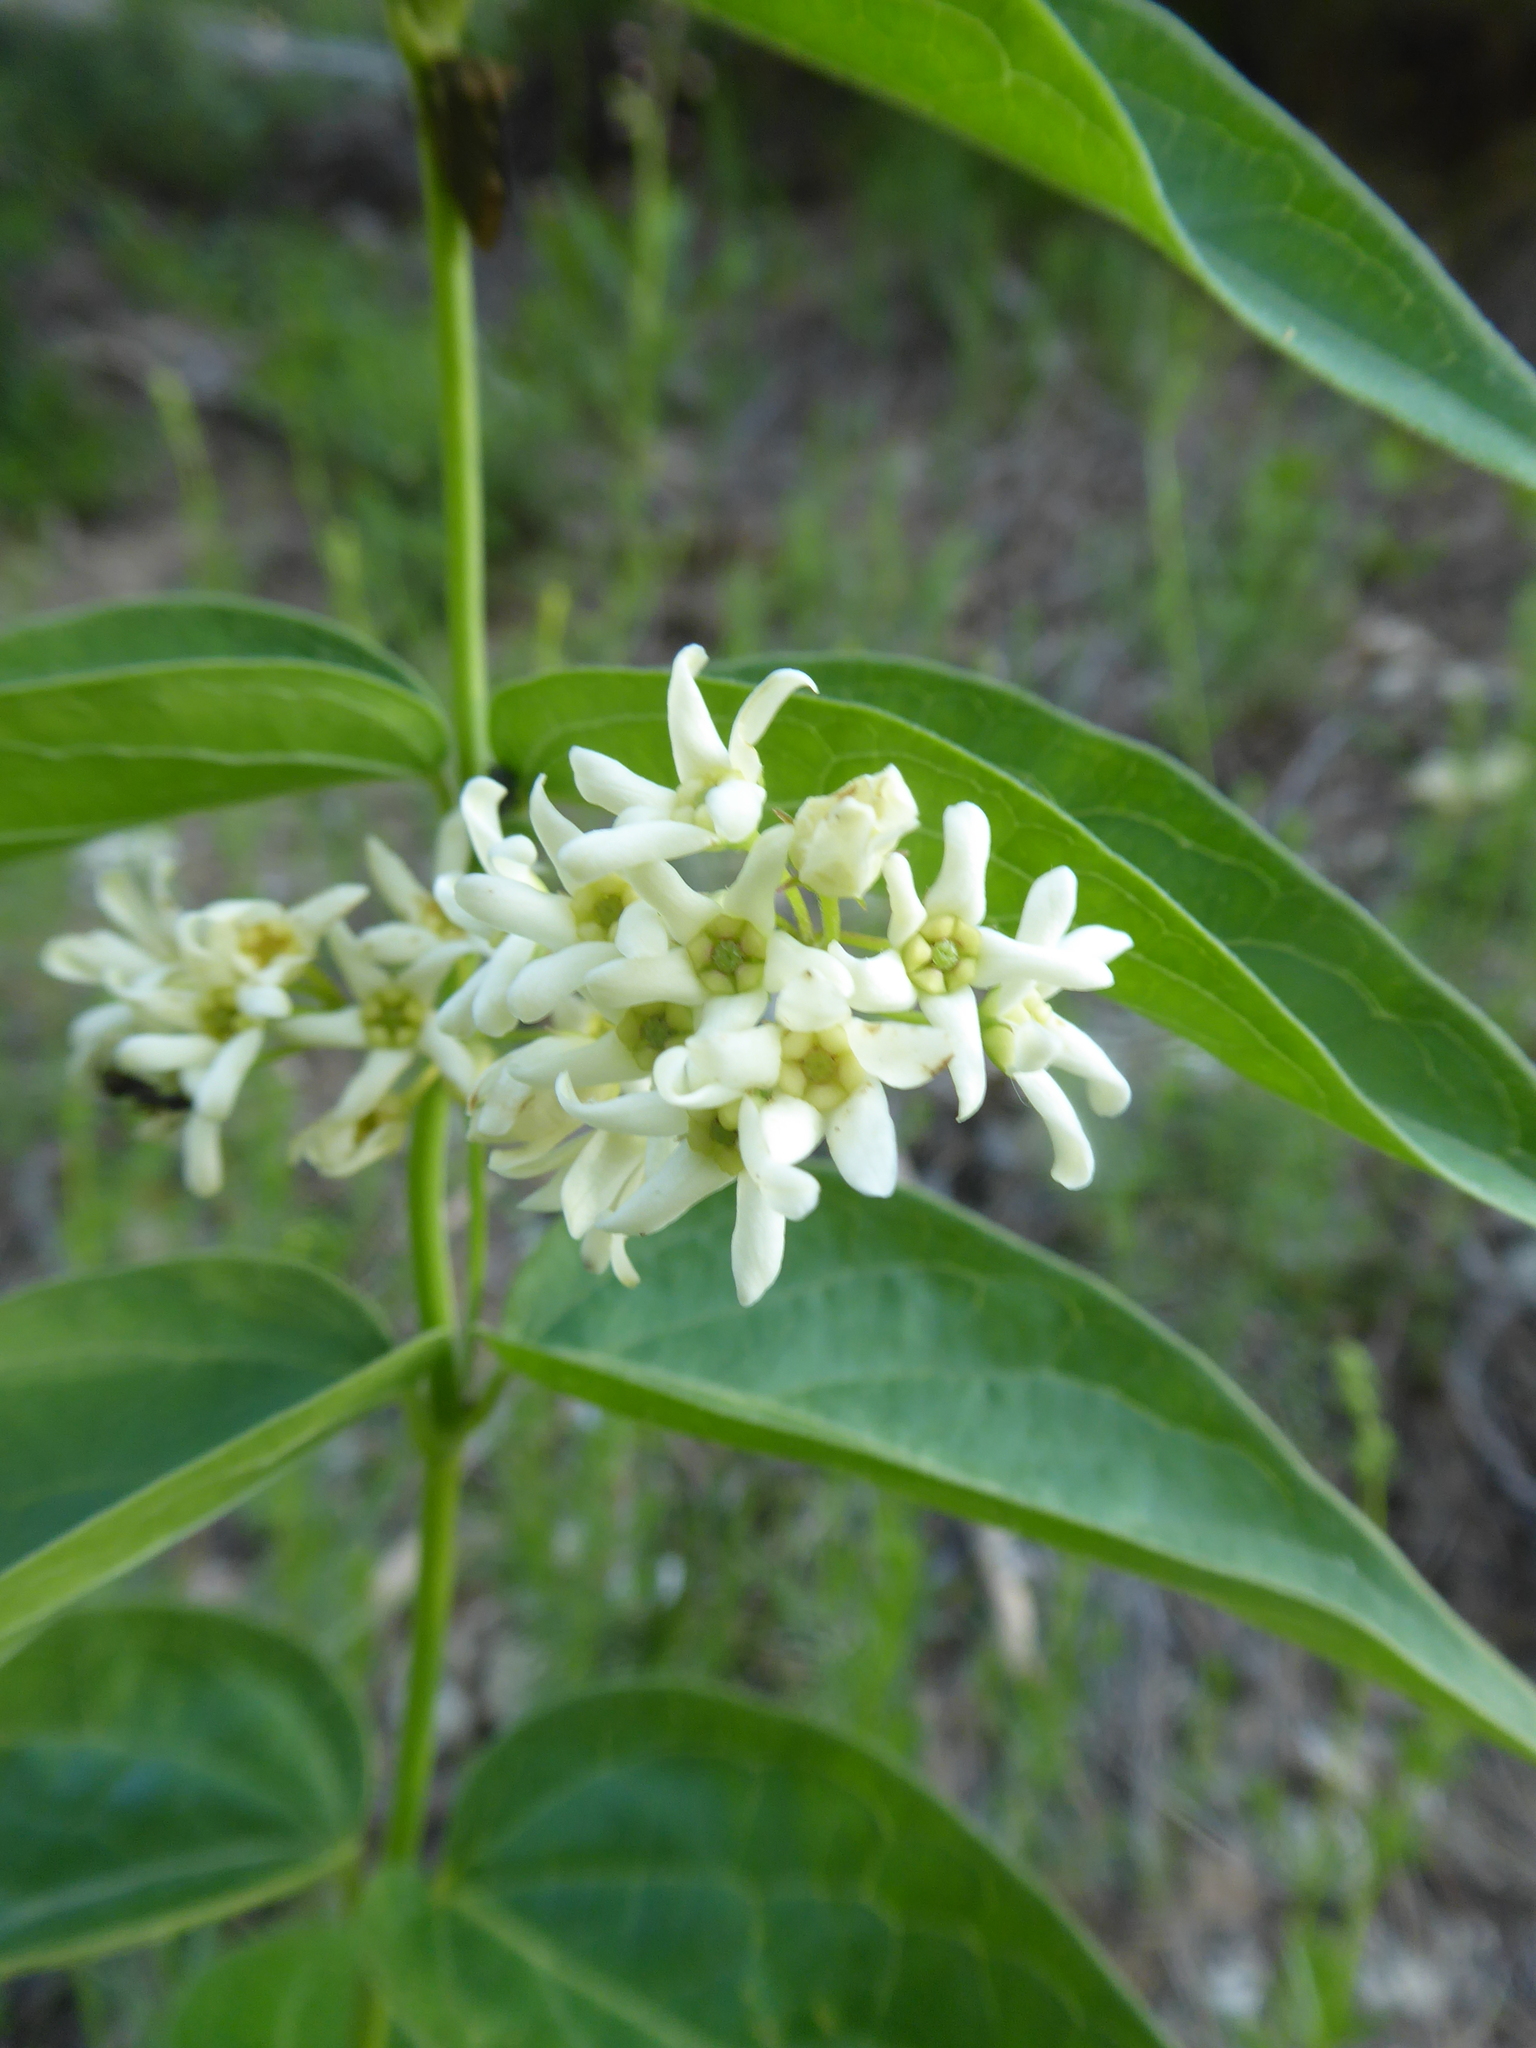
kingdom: Plantae
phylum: Tracheophyta
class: Magnoliopsida
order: Gentianales
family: Apocynaceae
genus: Vincetoxicum
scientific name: Vincetoxicum hirundinaria
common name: White swallowwort
